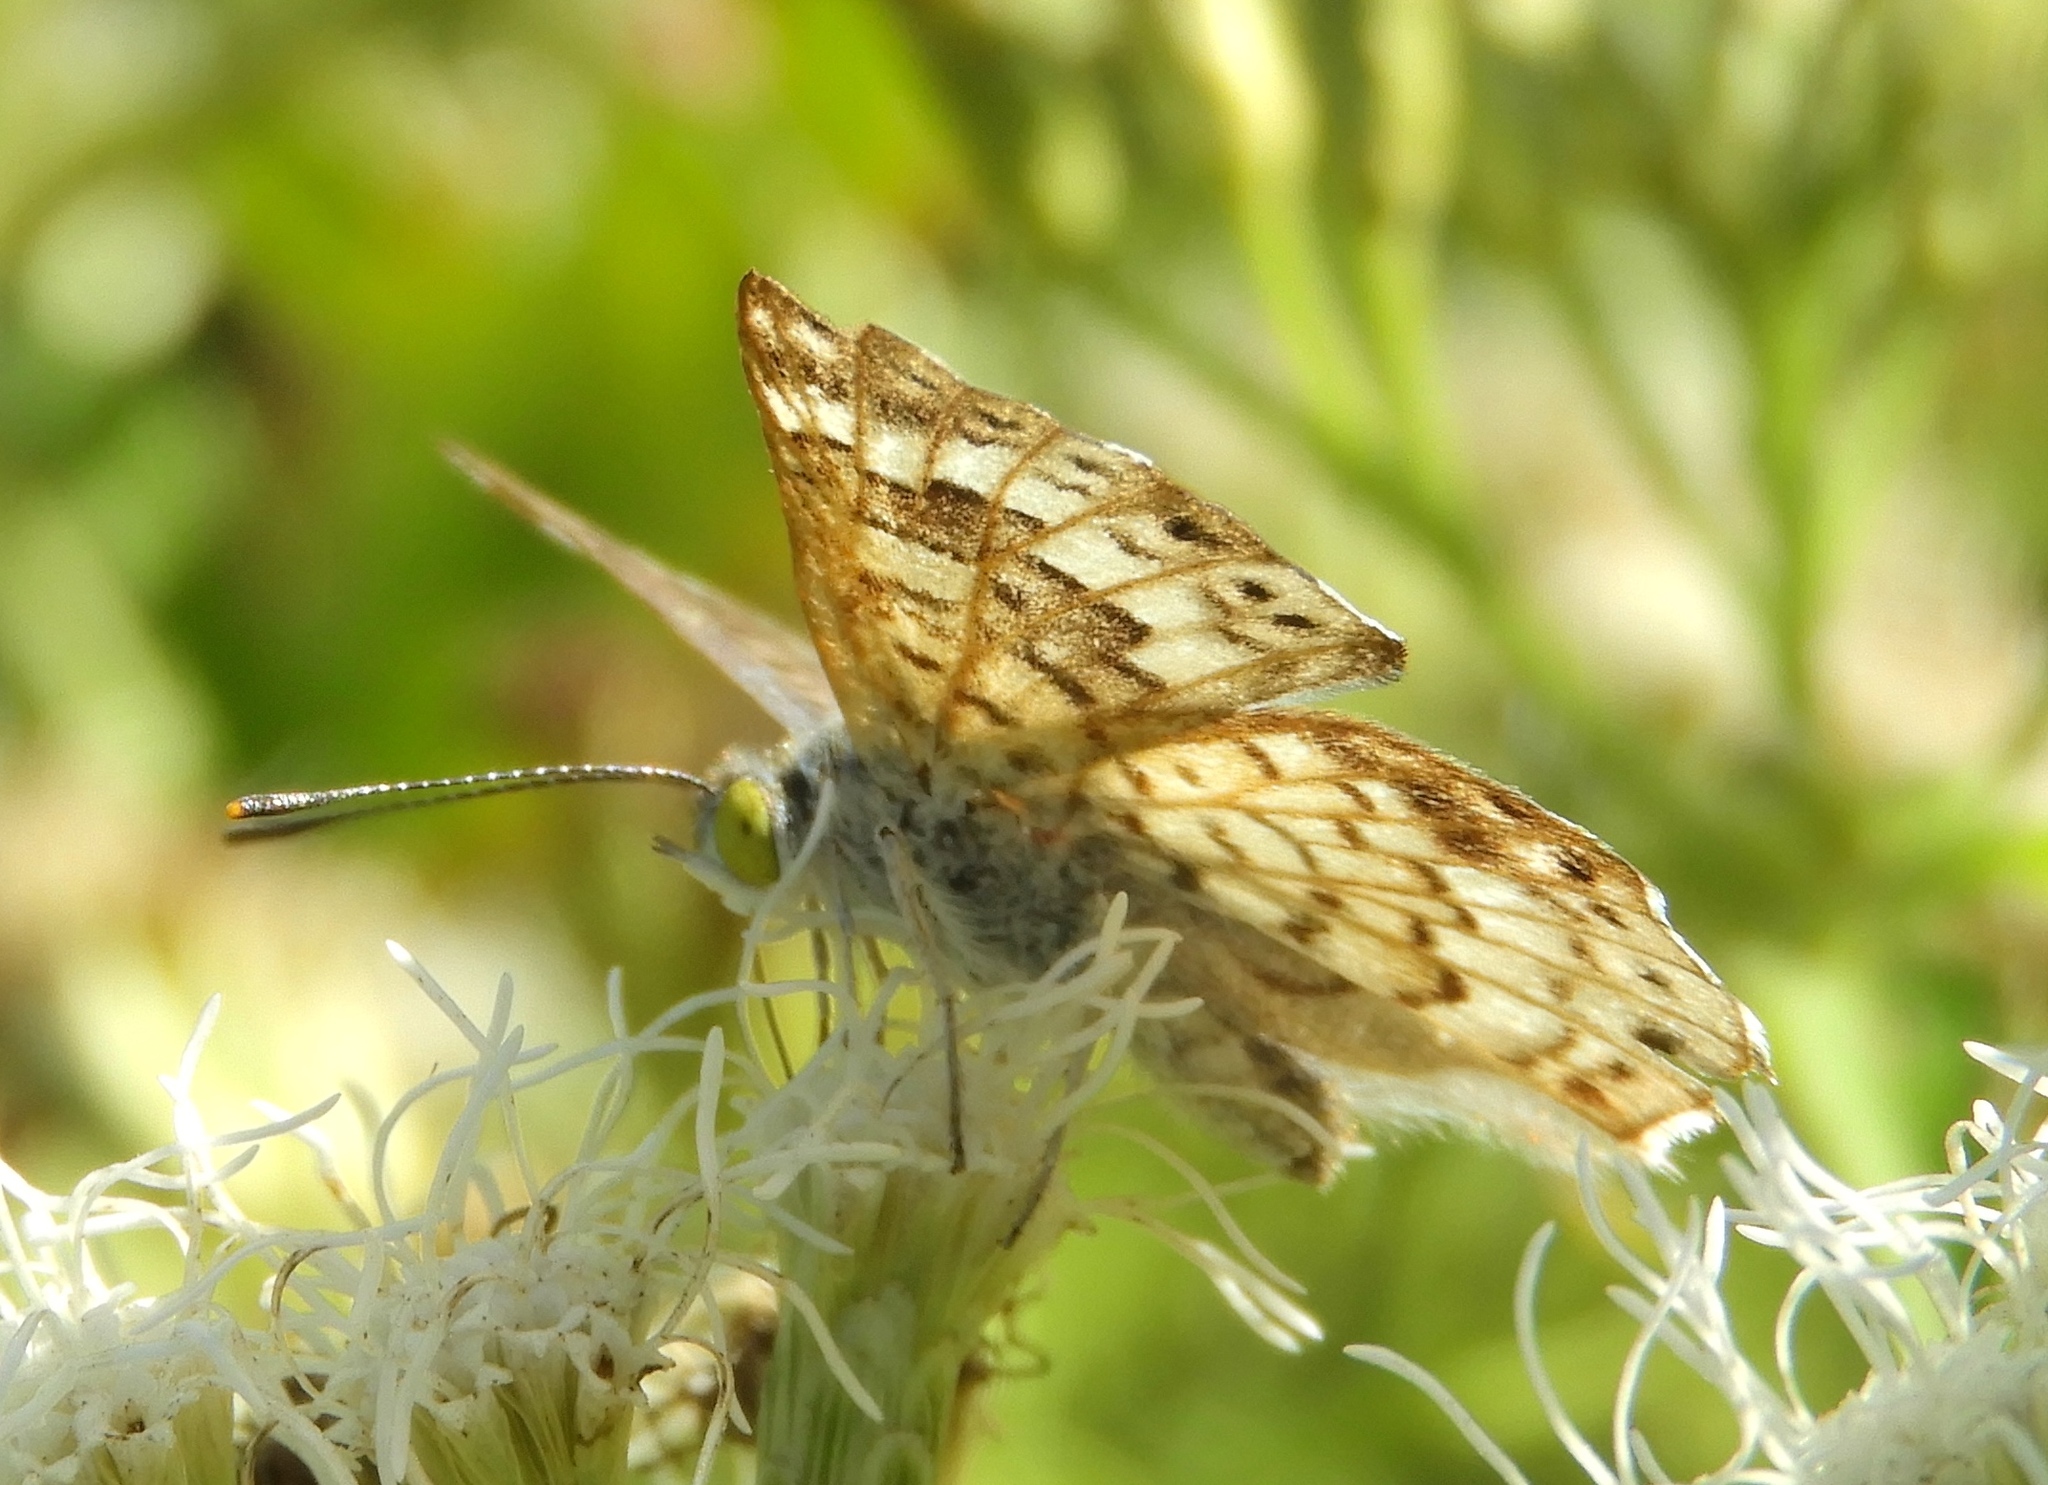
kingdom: Animalia
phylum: Arthropoda
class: Insecta
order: Diptera
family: Acroceridae
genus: Lasia
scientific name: Lasia
